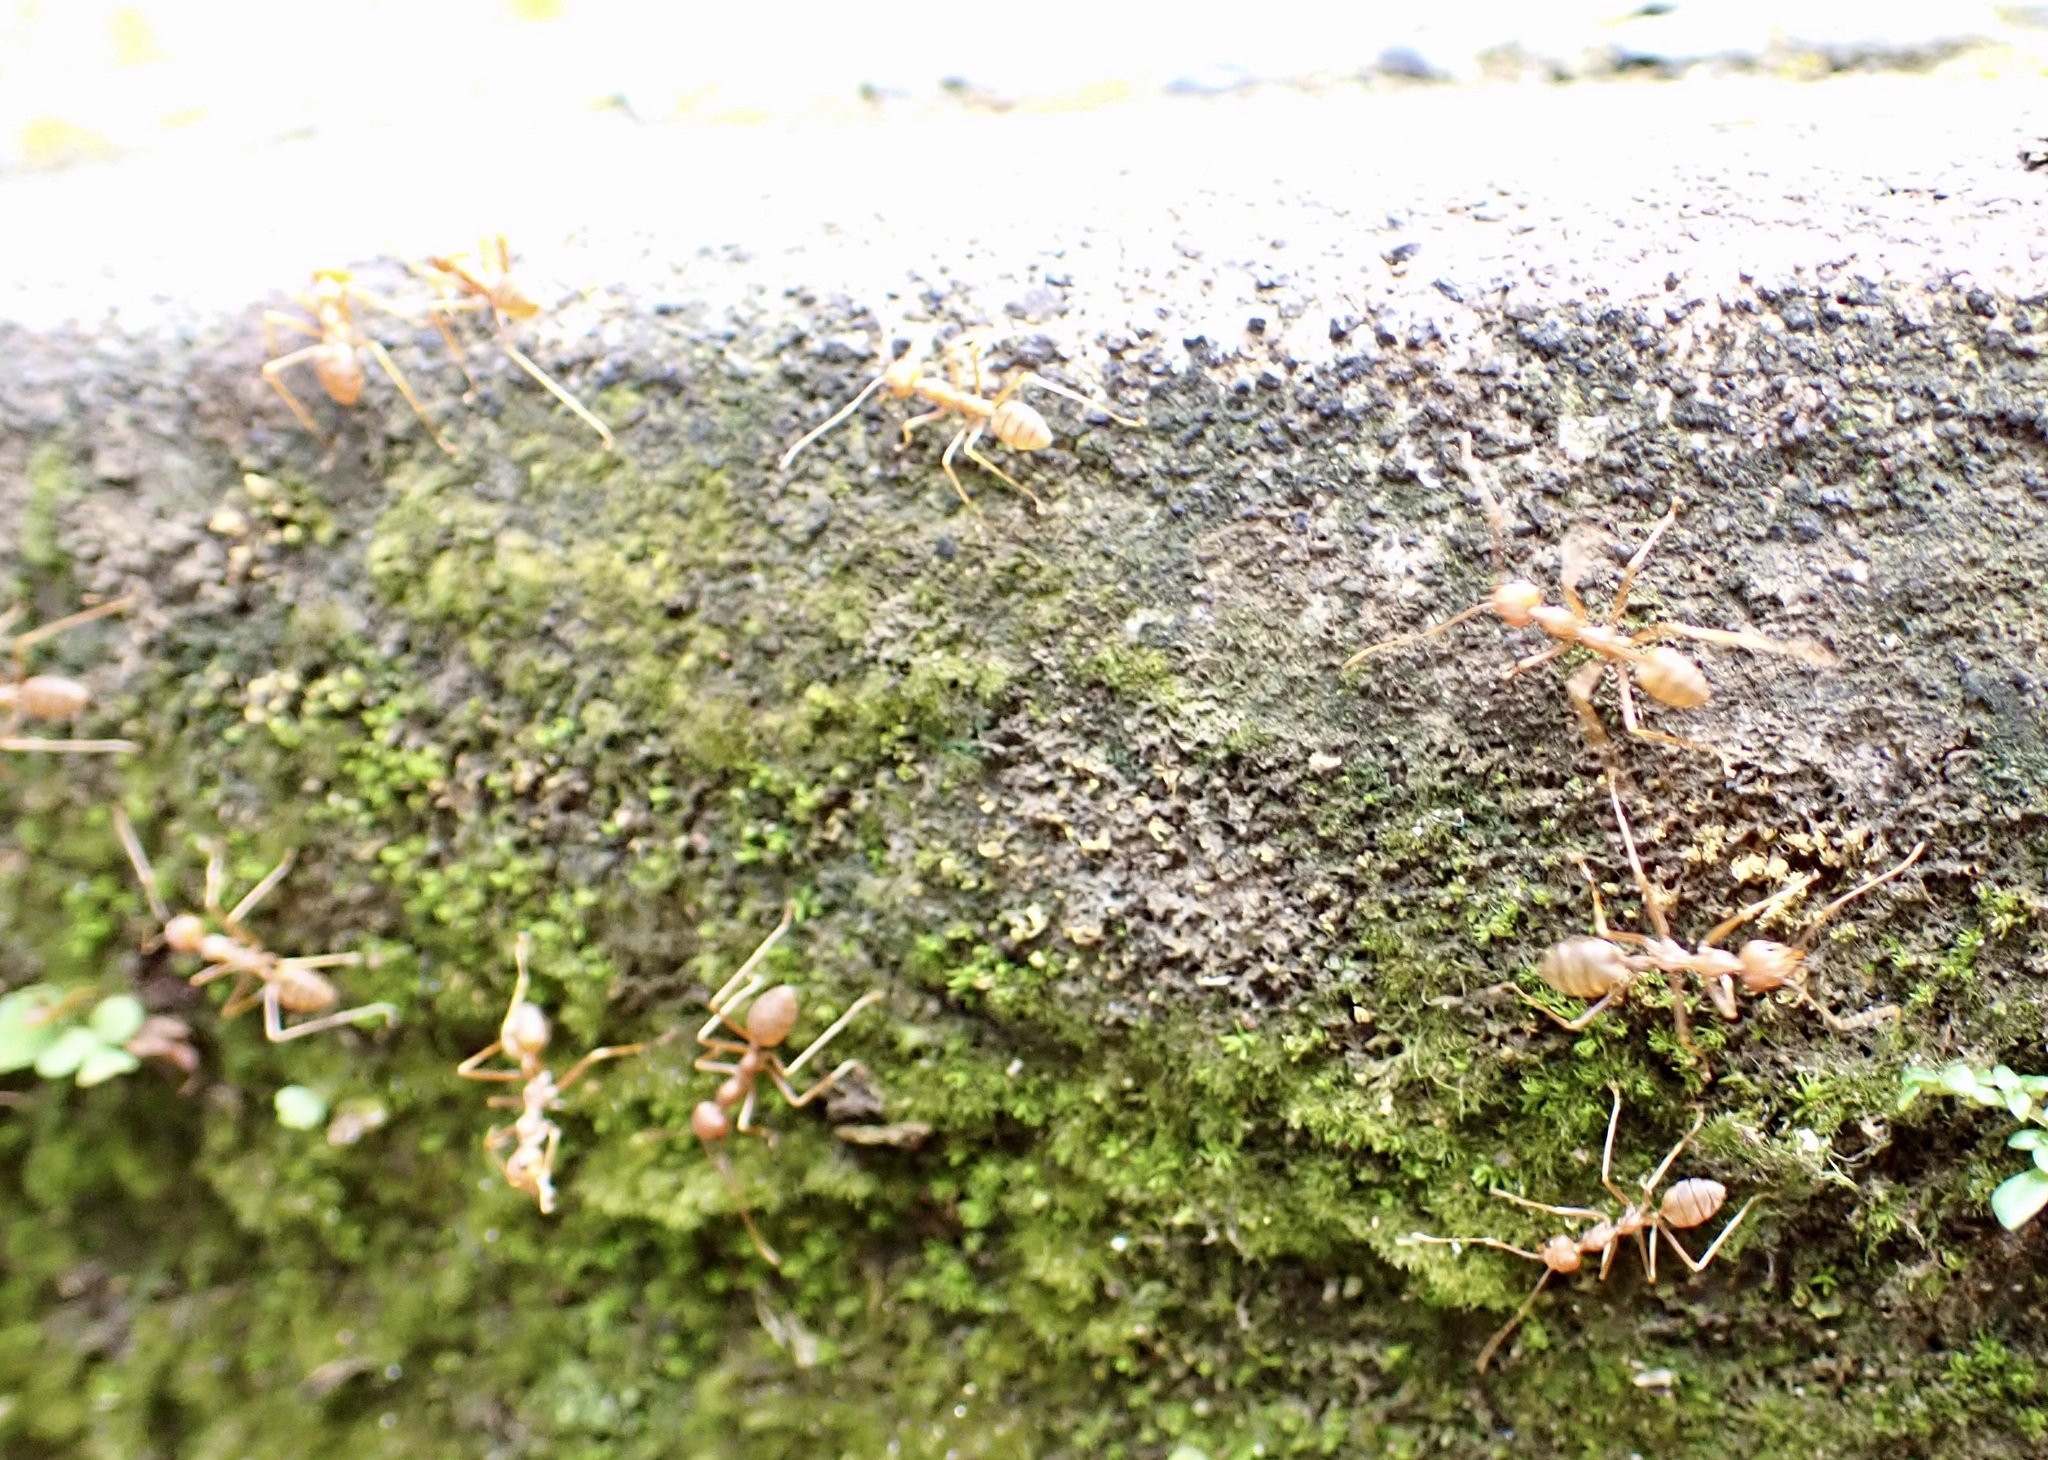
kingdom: Animalia
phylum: Arthropoda
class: Insecta
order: Hymenoptera
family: Formicidae
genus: Oecophylla
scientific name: Oecophylla smaragdina
